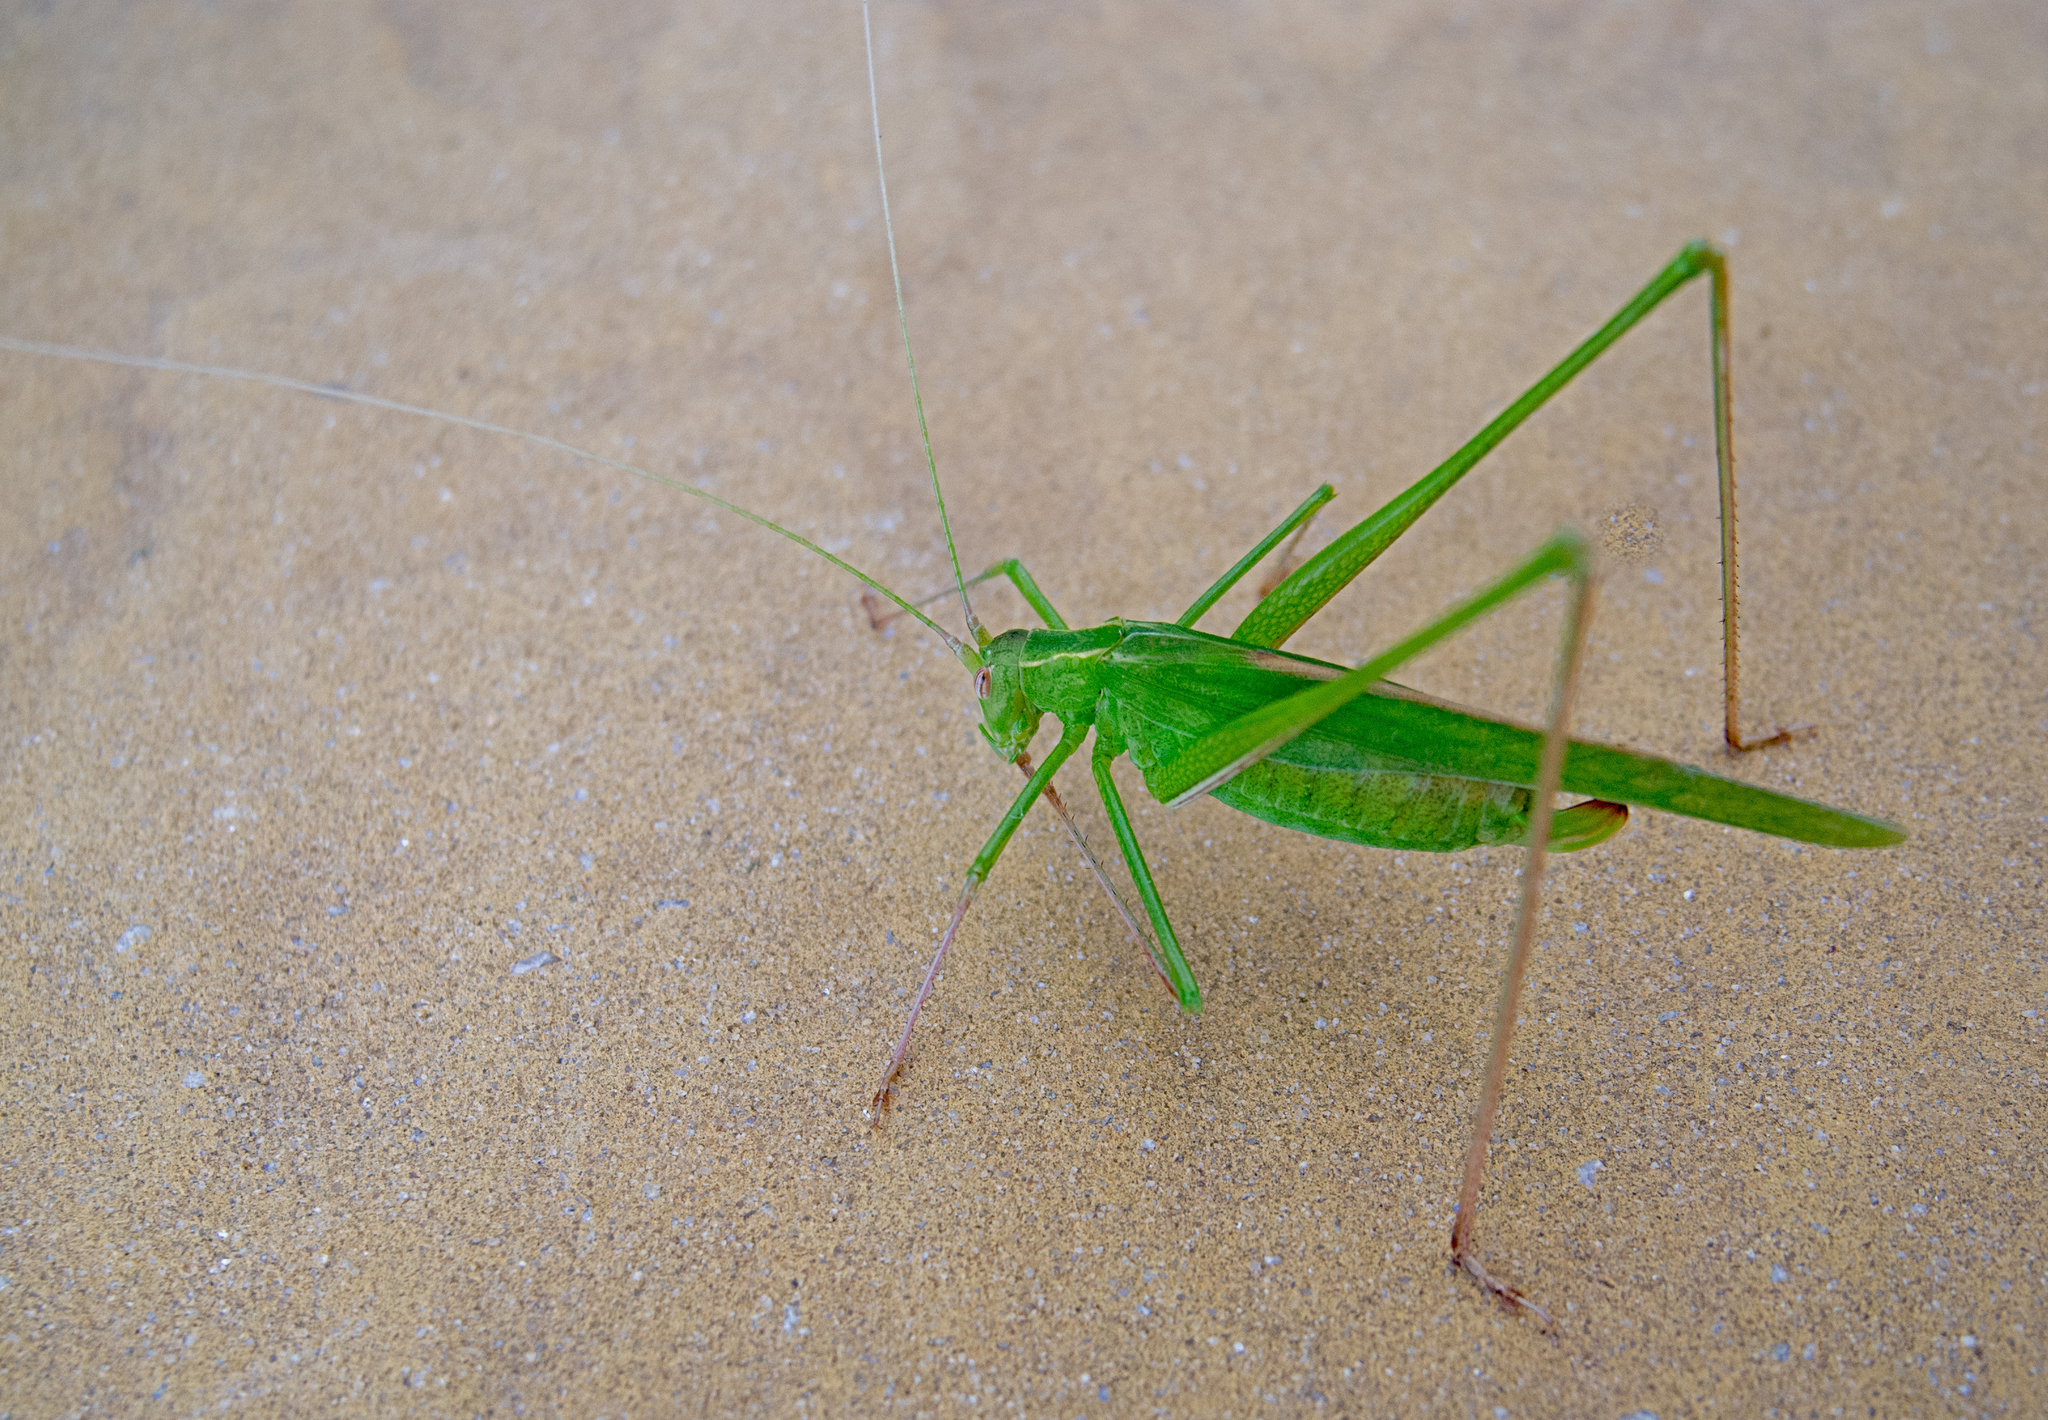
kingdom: Animalia
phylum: Arthropoda
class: Insecta
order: Orthoptera
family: Tettigoniidae
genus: Tylopsis
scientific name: Tylopsis lilifolia
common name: Lily bush-cricket
